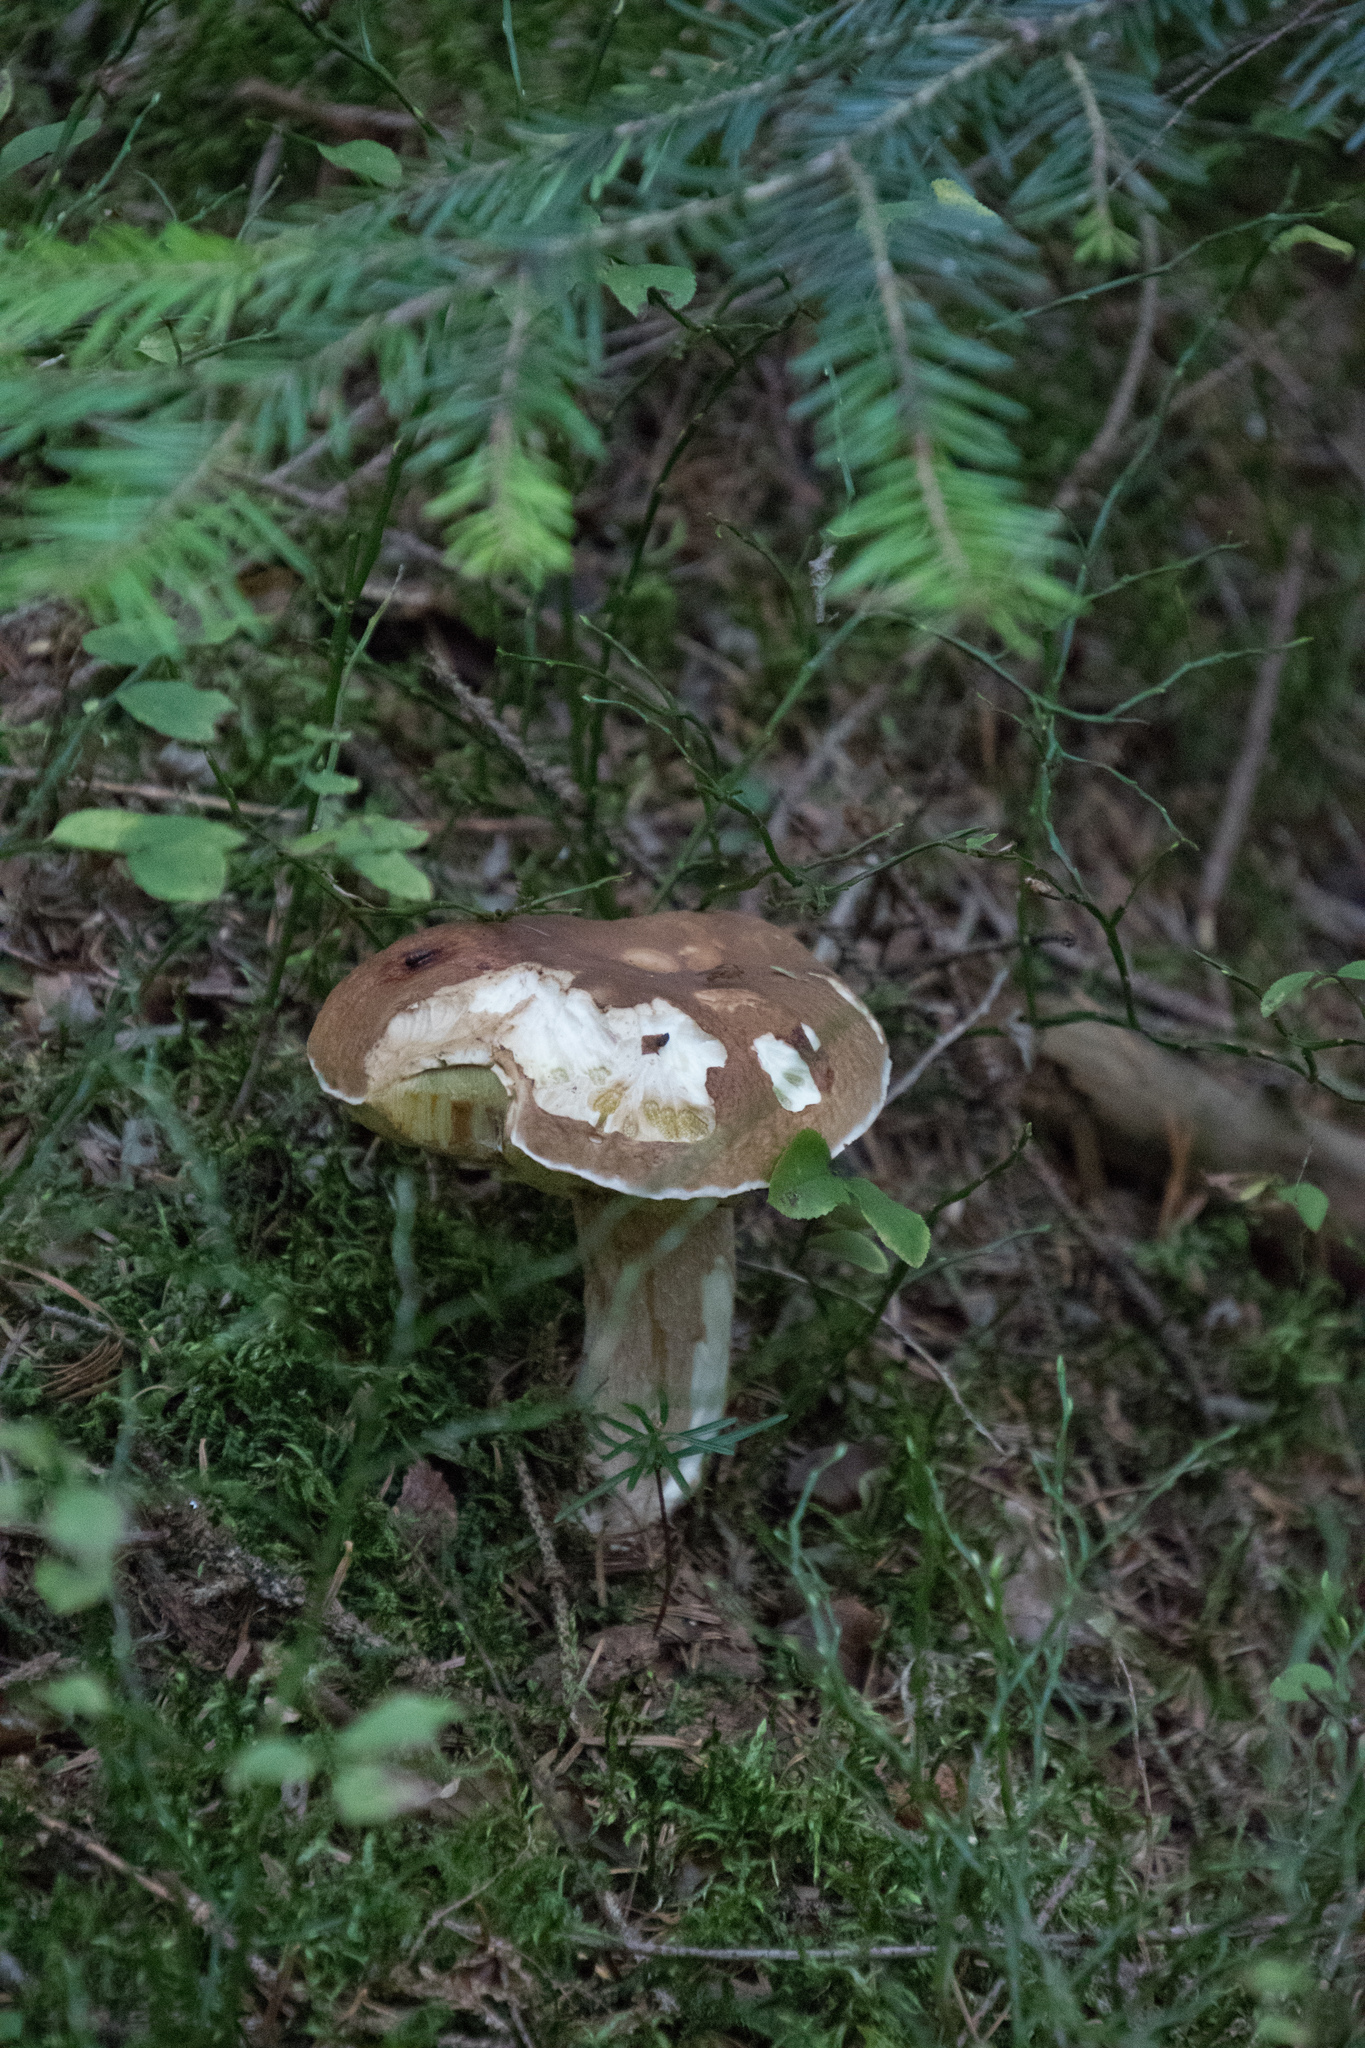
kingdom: Fungi
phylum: Basidiomycota
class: Agaricomycetes
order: Boletales
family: Boletaceae
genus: Boletus
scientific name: Boletus edulis
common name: Cep
